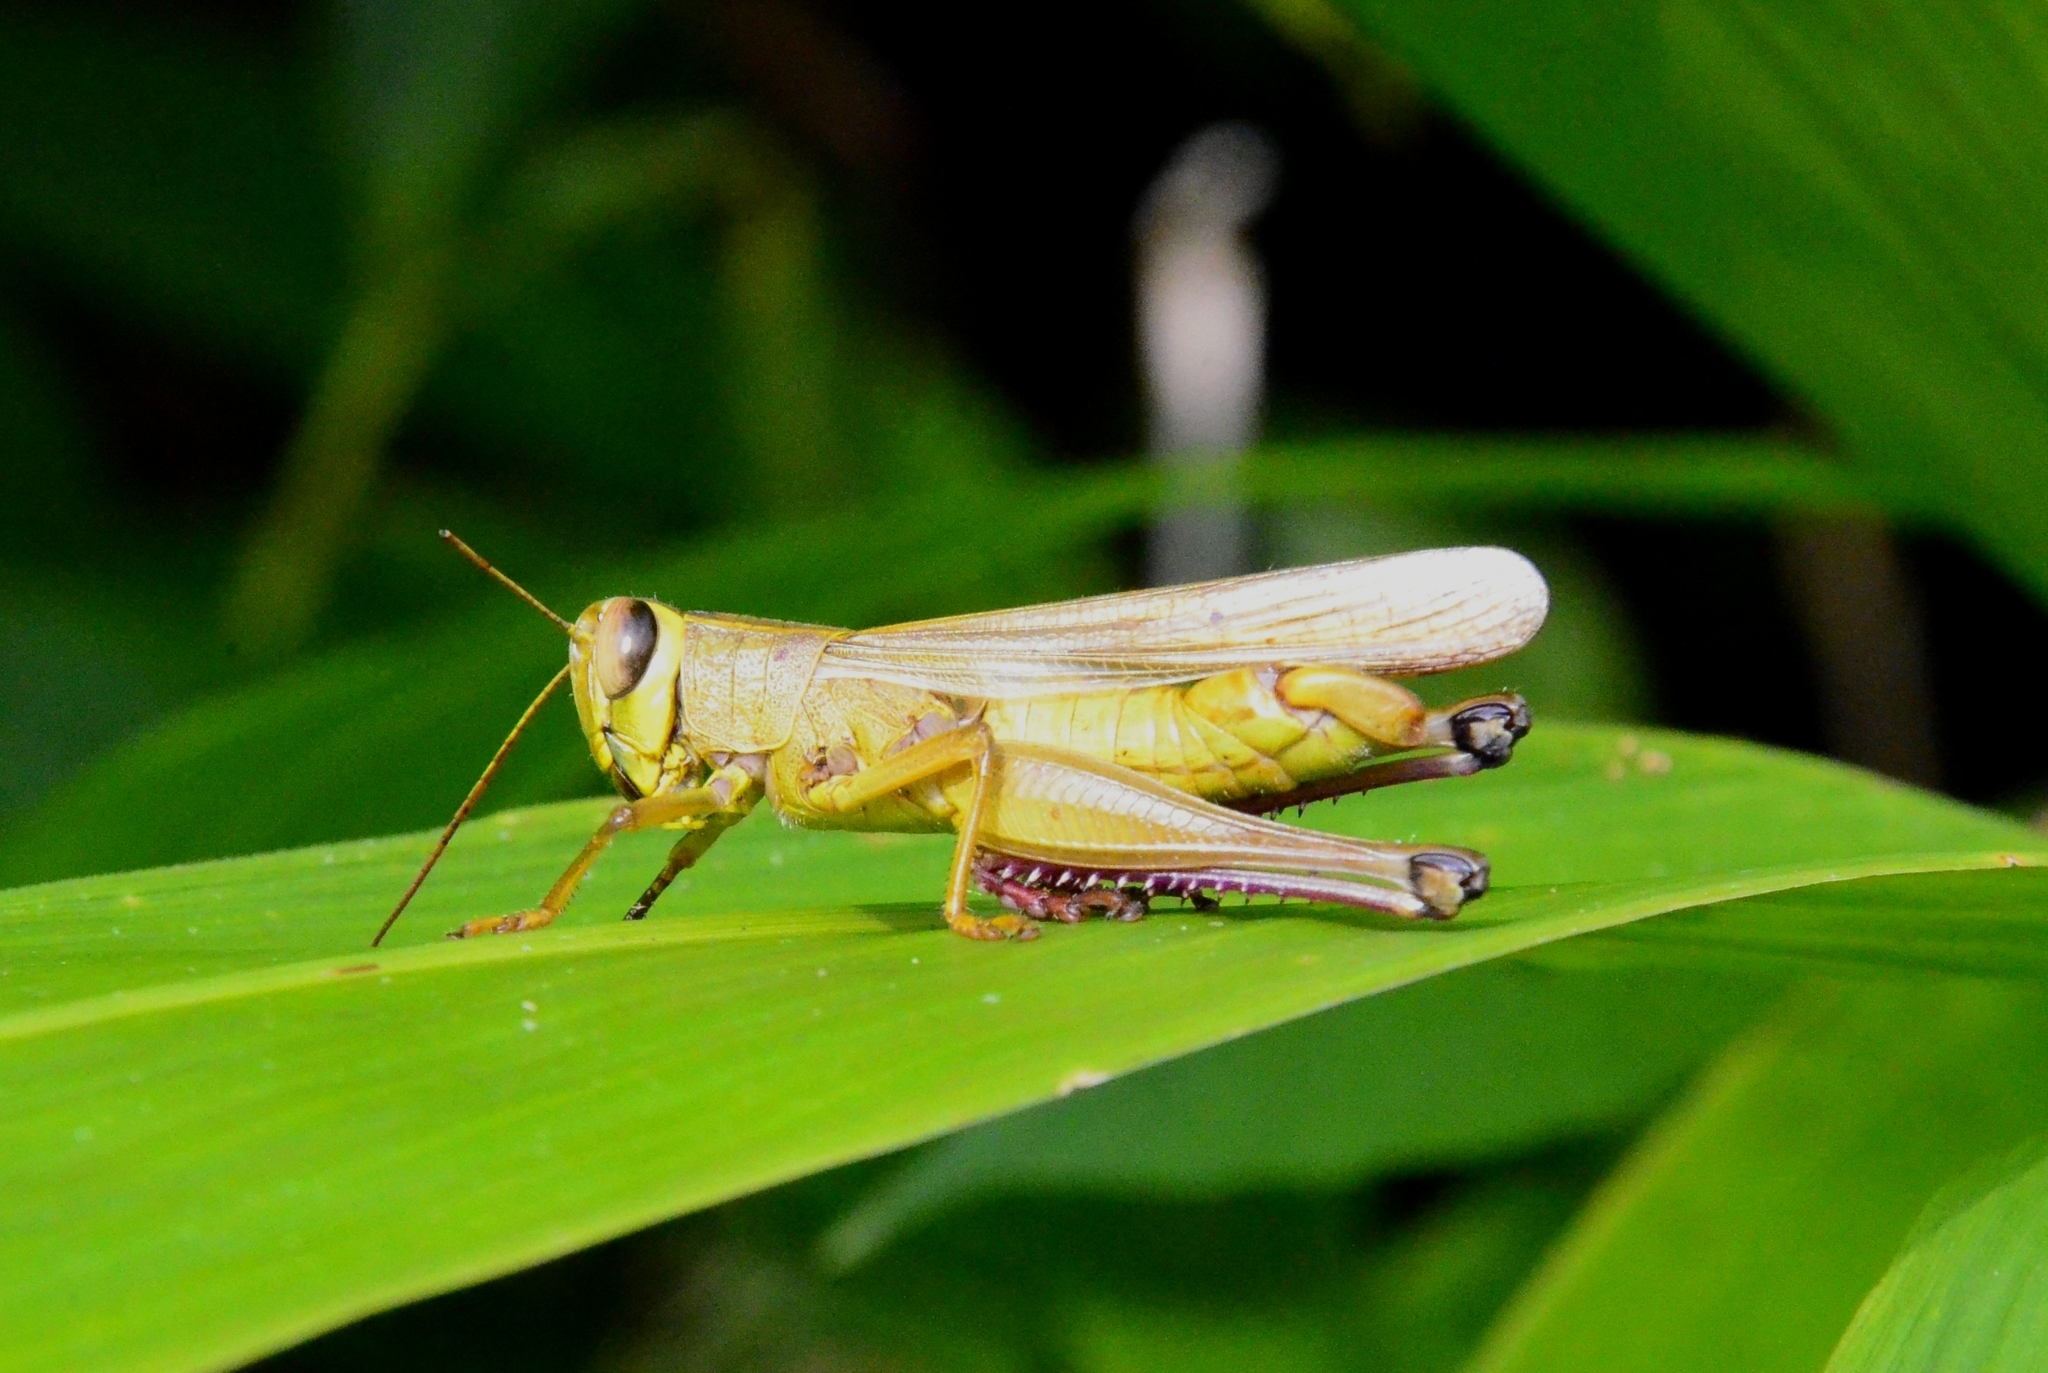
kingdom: Animalia
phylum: Arthropoda
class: Insecta
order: Orthoptera
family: Acrididae
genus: Choroedocus
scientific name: Choroedocus violaceipes
